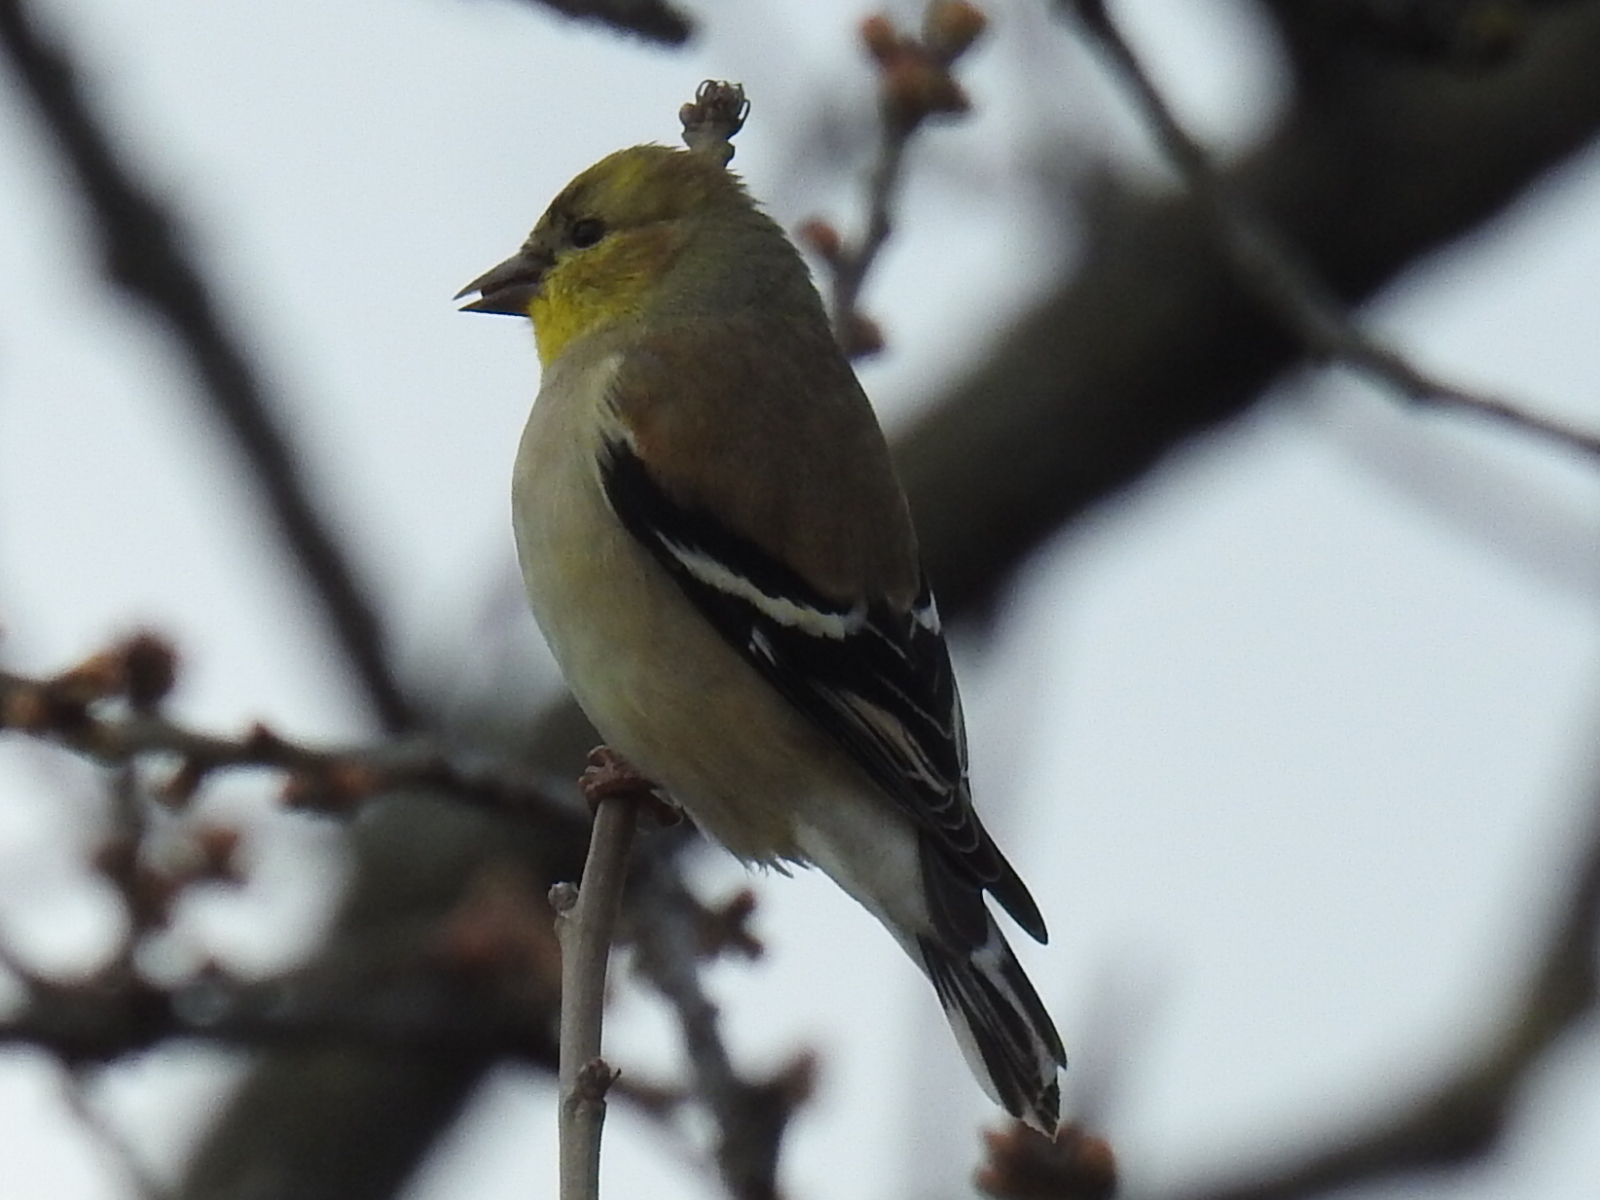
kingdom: Animalia
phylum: Chordata
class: Aves
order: Passeriformes
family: Fringillidae
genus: Spinus
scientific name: Spinus tristis
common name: American goldfinch
